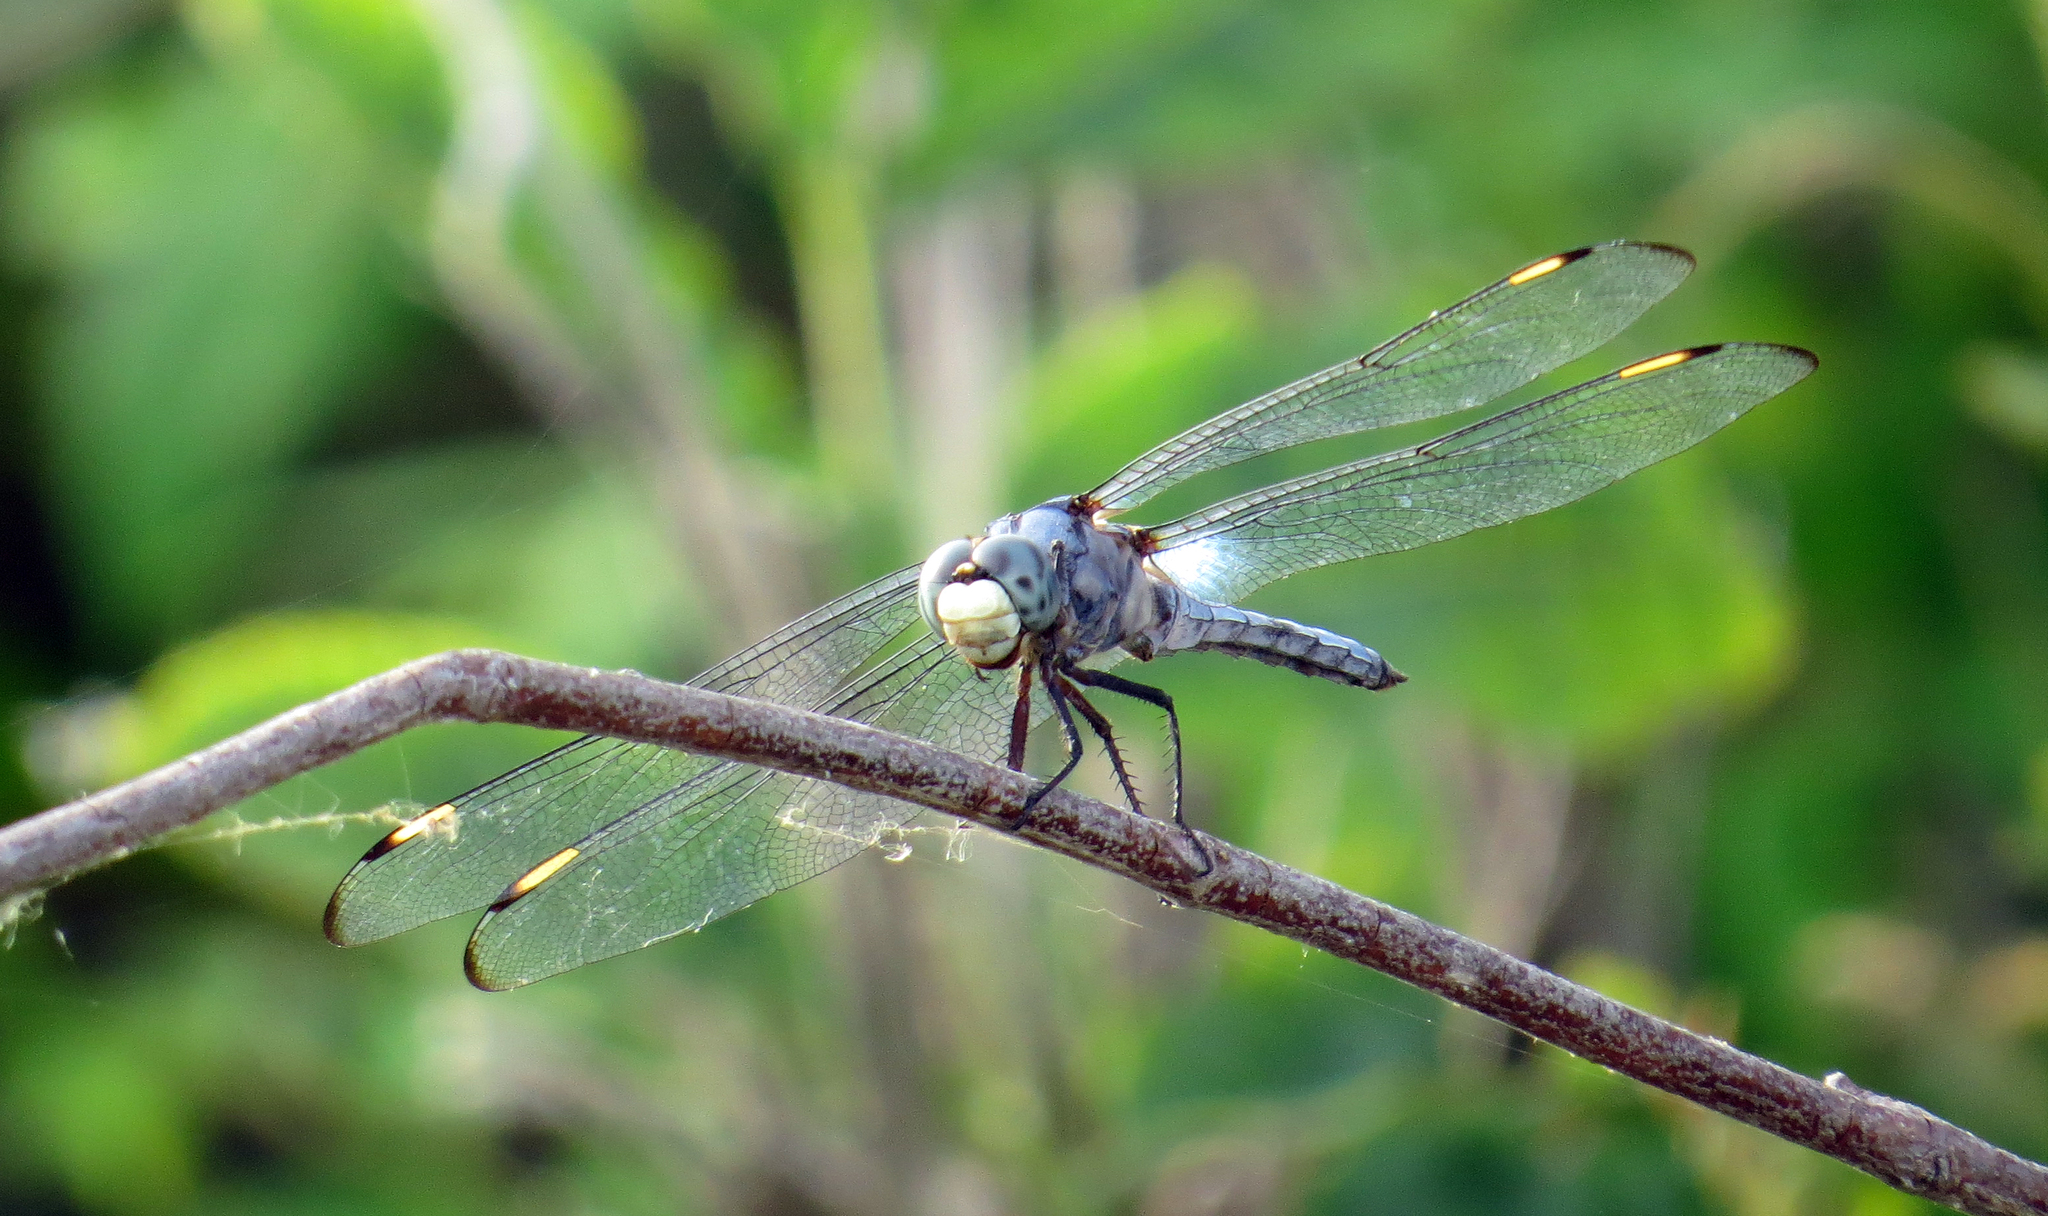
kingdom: Animalia
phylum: Arthropoda
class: Insecta
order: Odonata
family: Libellulidae
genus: Libellula
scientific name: Libellula comanche
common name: Comanche skimmer
